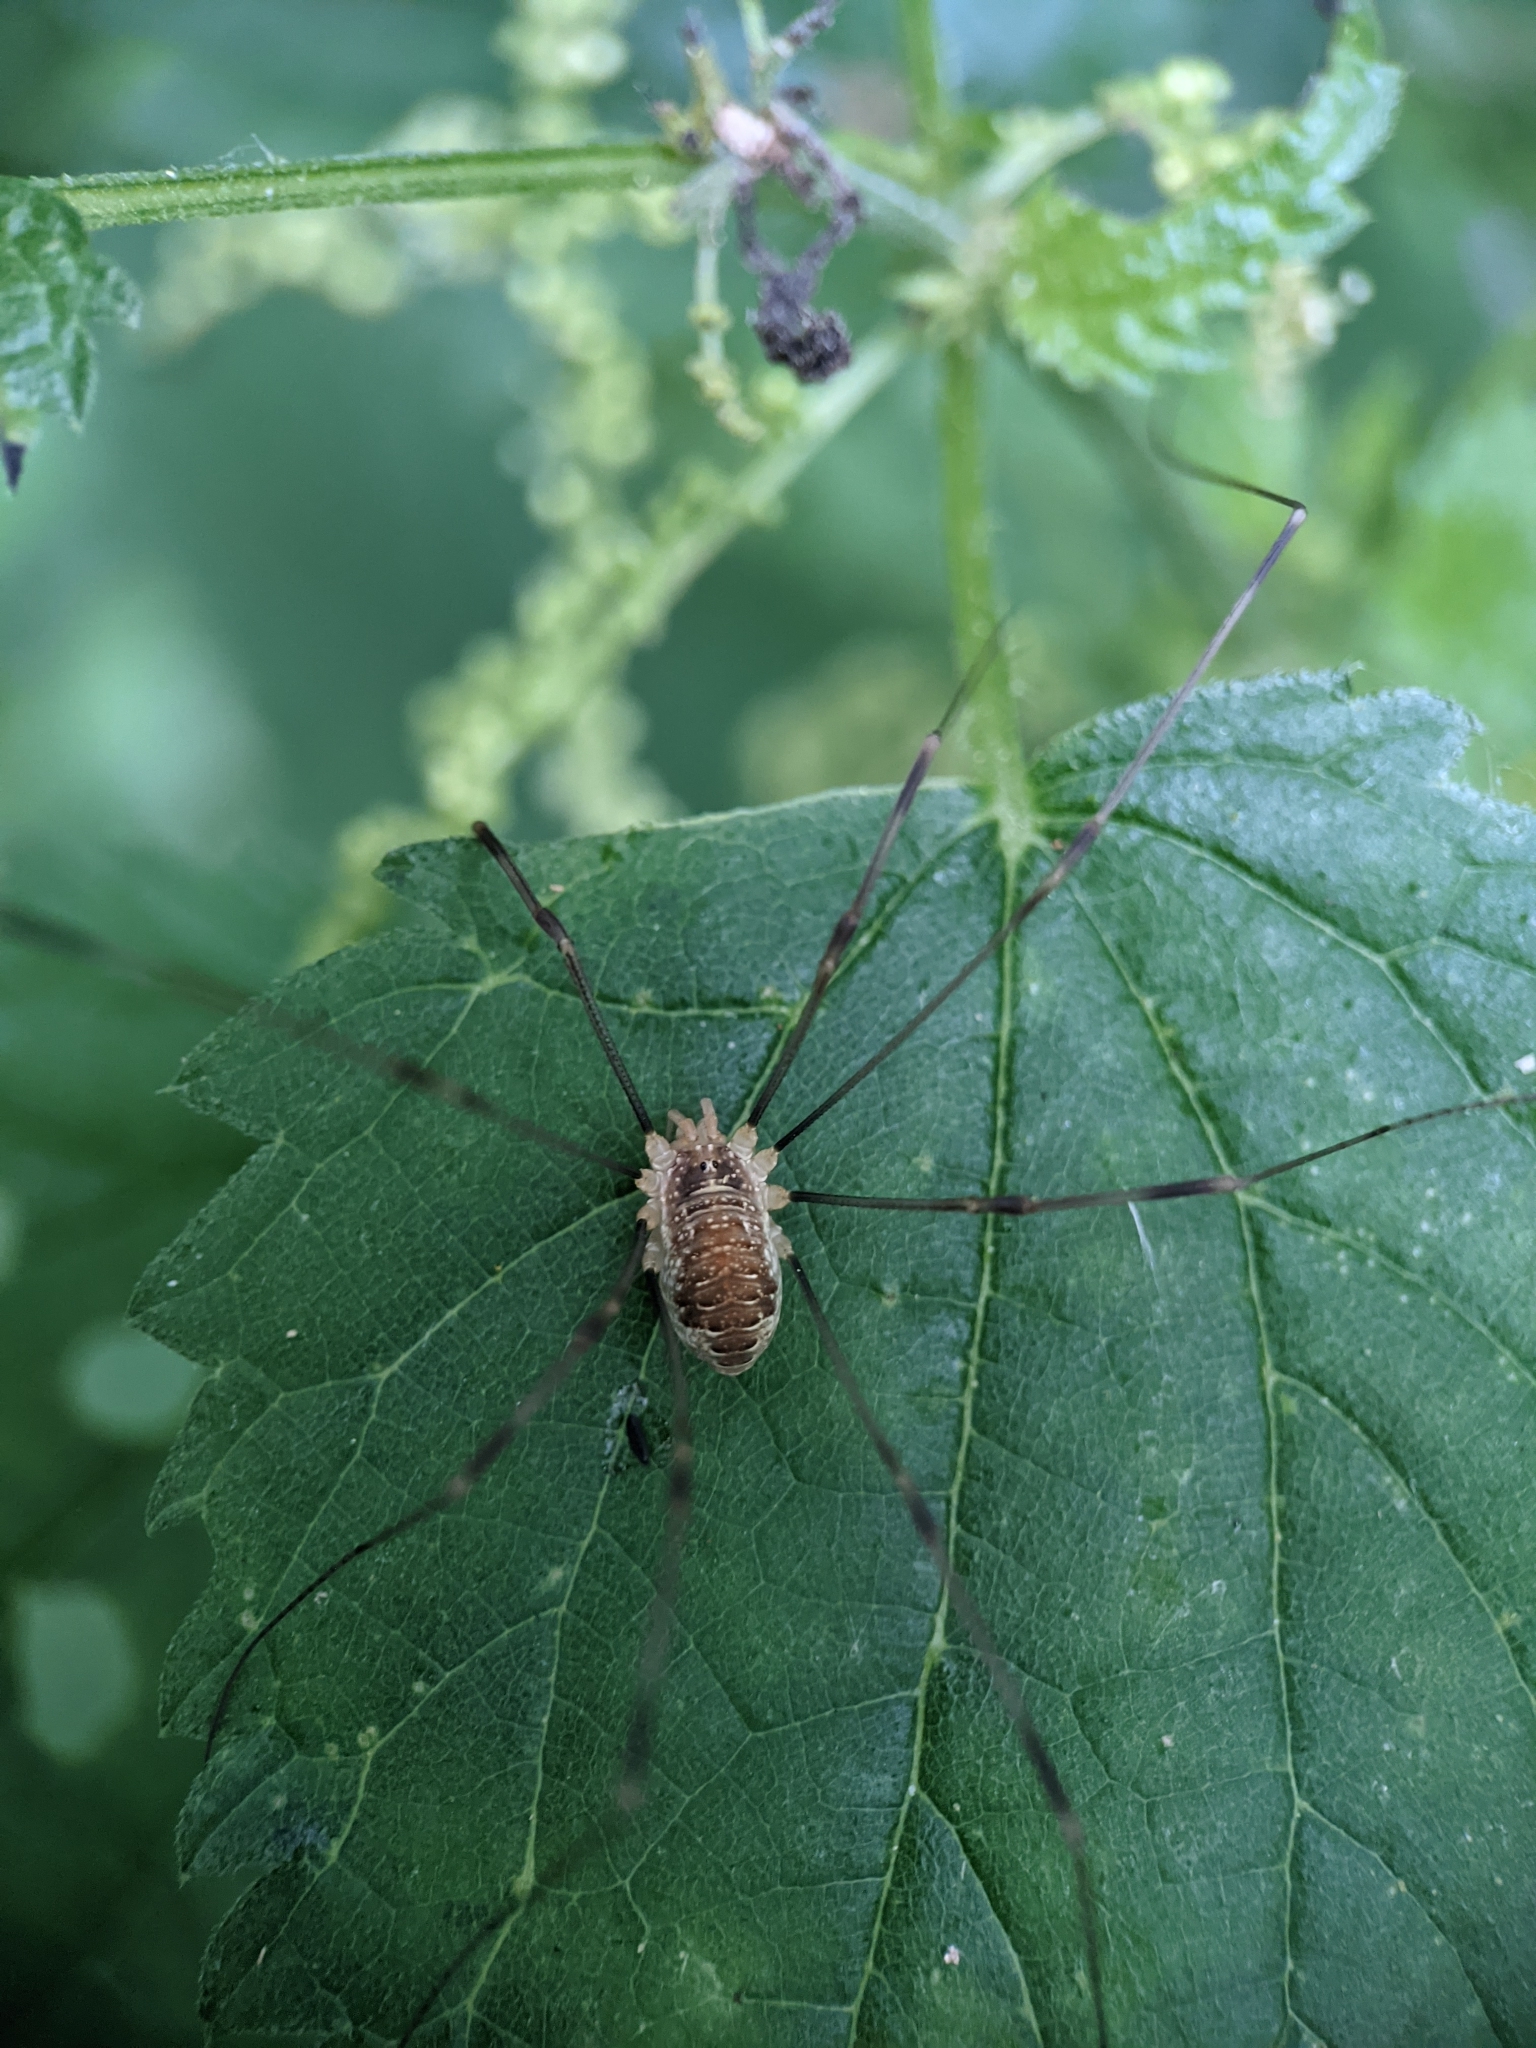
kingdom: Animalia
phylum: Arthropoda
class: Arachnida
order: Opiliones
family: Phalangiidae
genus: Opilio
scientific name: Opilio canestrinii
